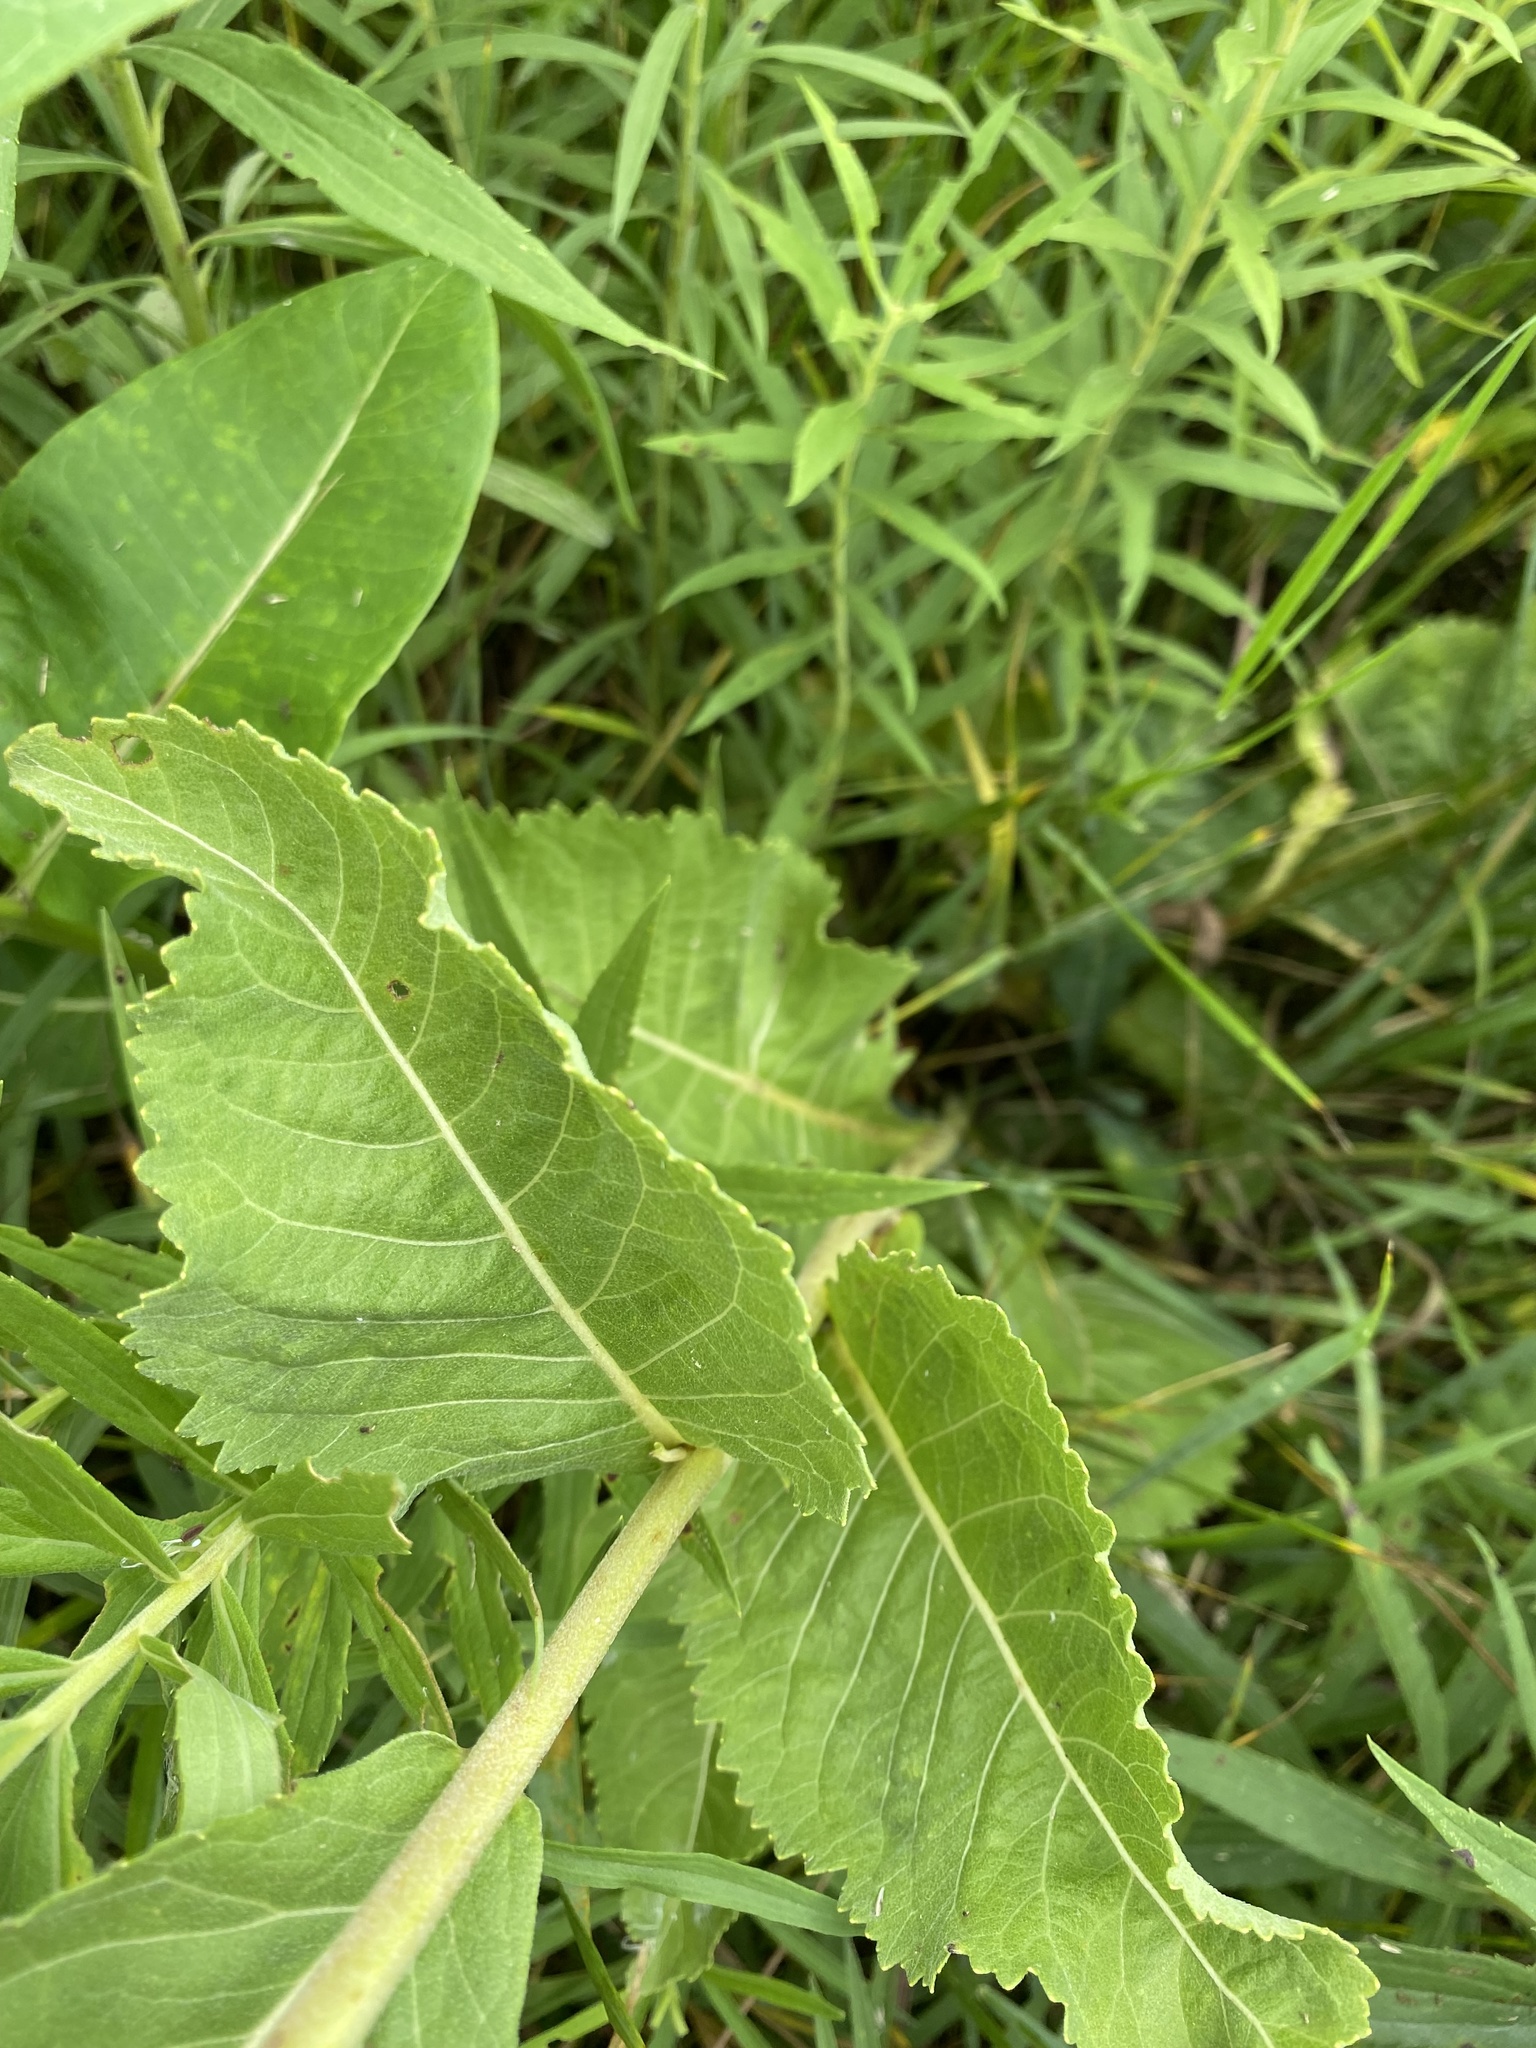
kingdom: Plantae
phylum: Tracheophyta
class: Magnoliopsida
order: Asterales
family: Asteraceae
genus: Parthenium
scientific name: Parthenium integrifolium
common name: American feverfew
